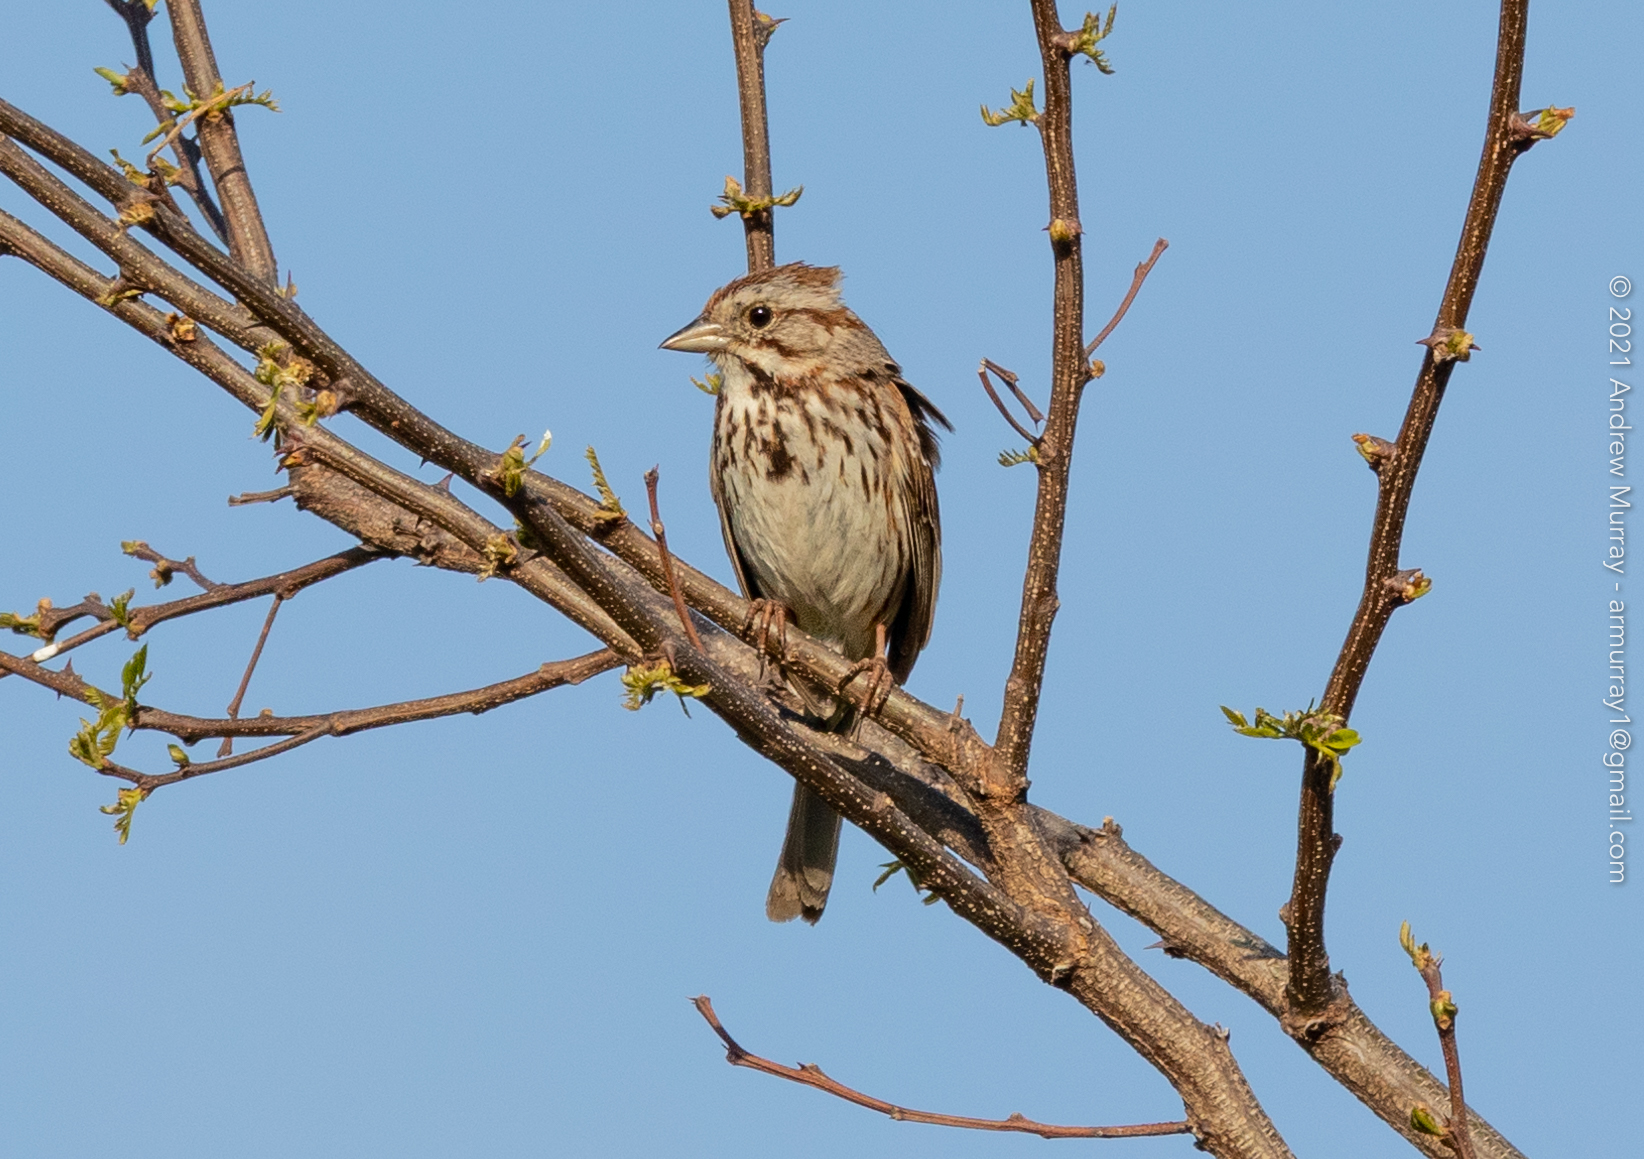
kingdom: Animalia
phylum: Chordata
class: Aves
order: Passeriformes
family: Passerellidae
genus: Melospiza
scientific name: Melospiza melodia
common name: Song sparrow
